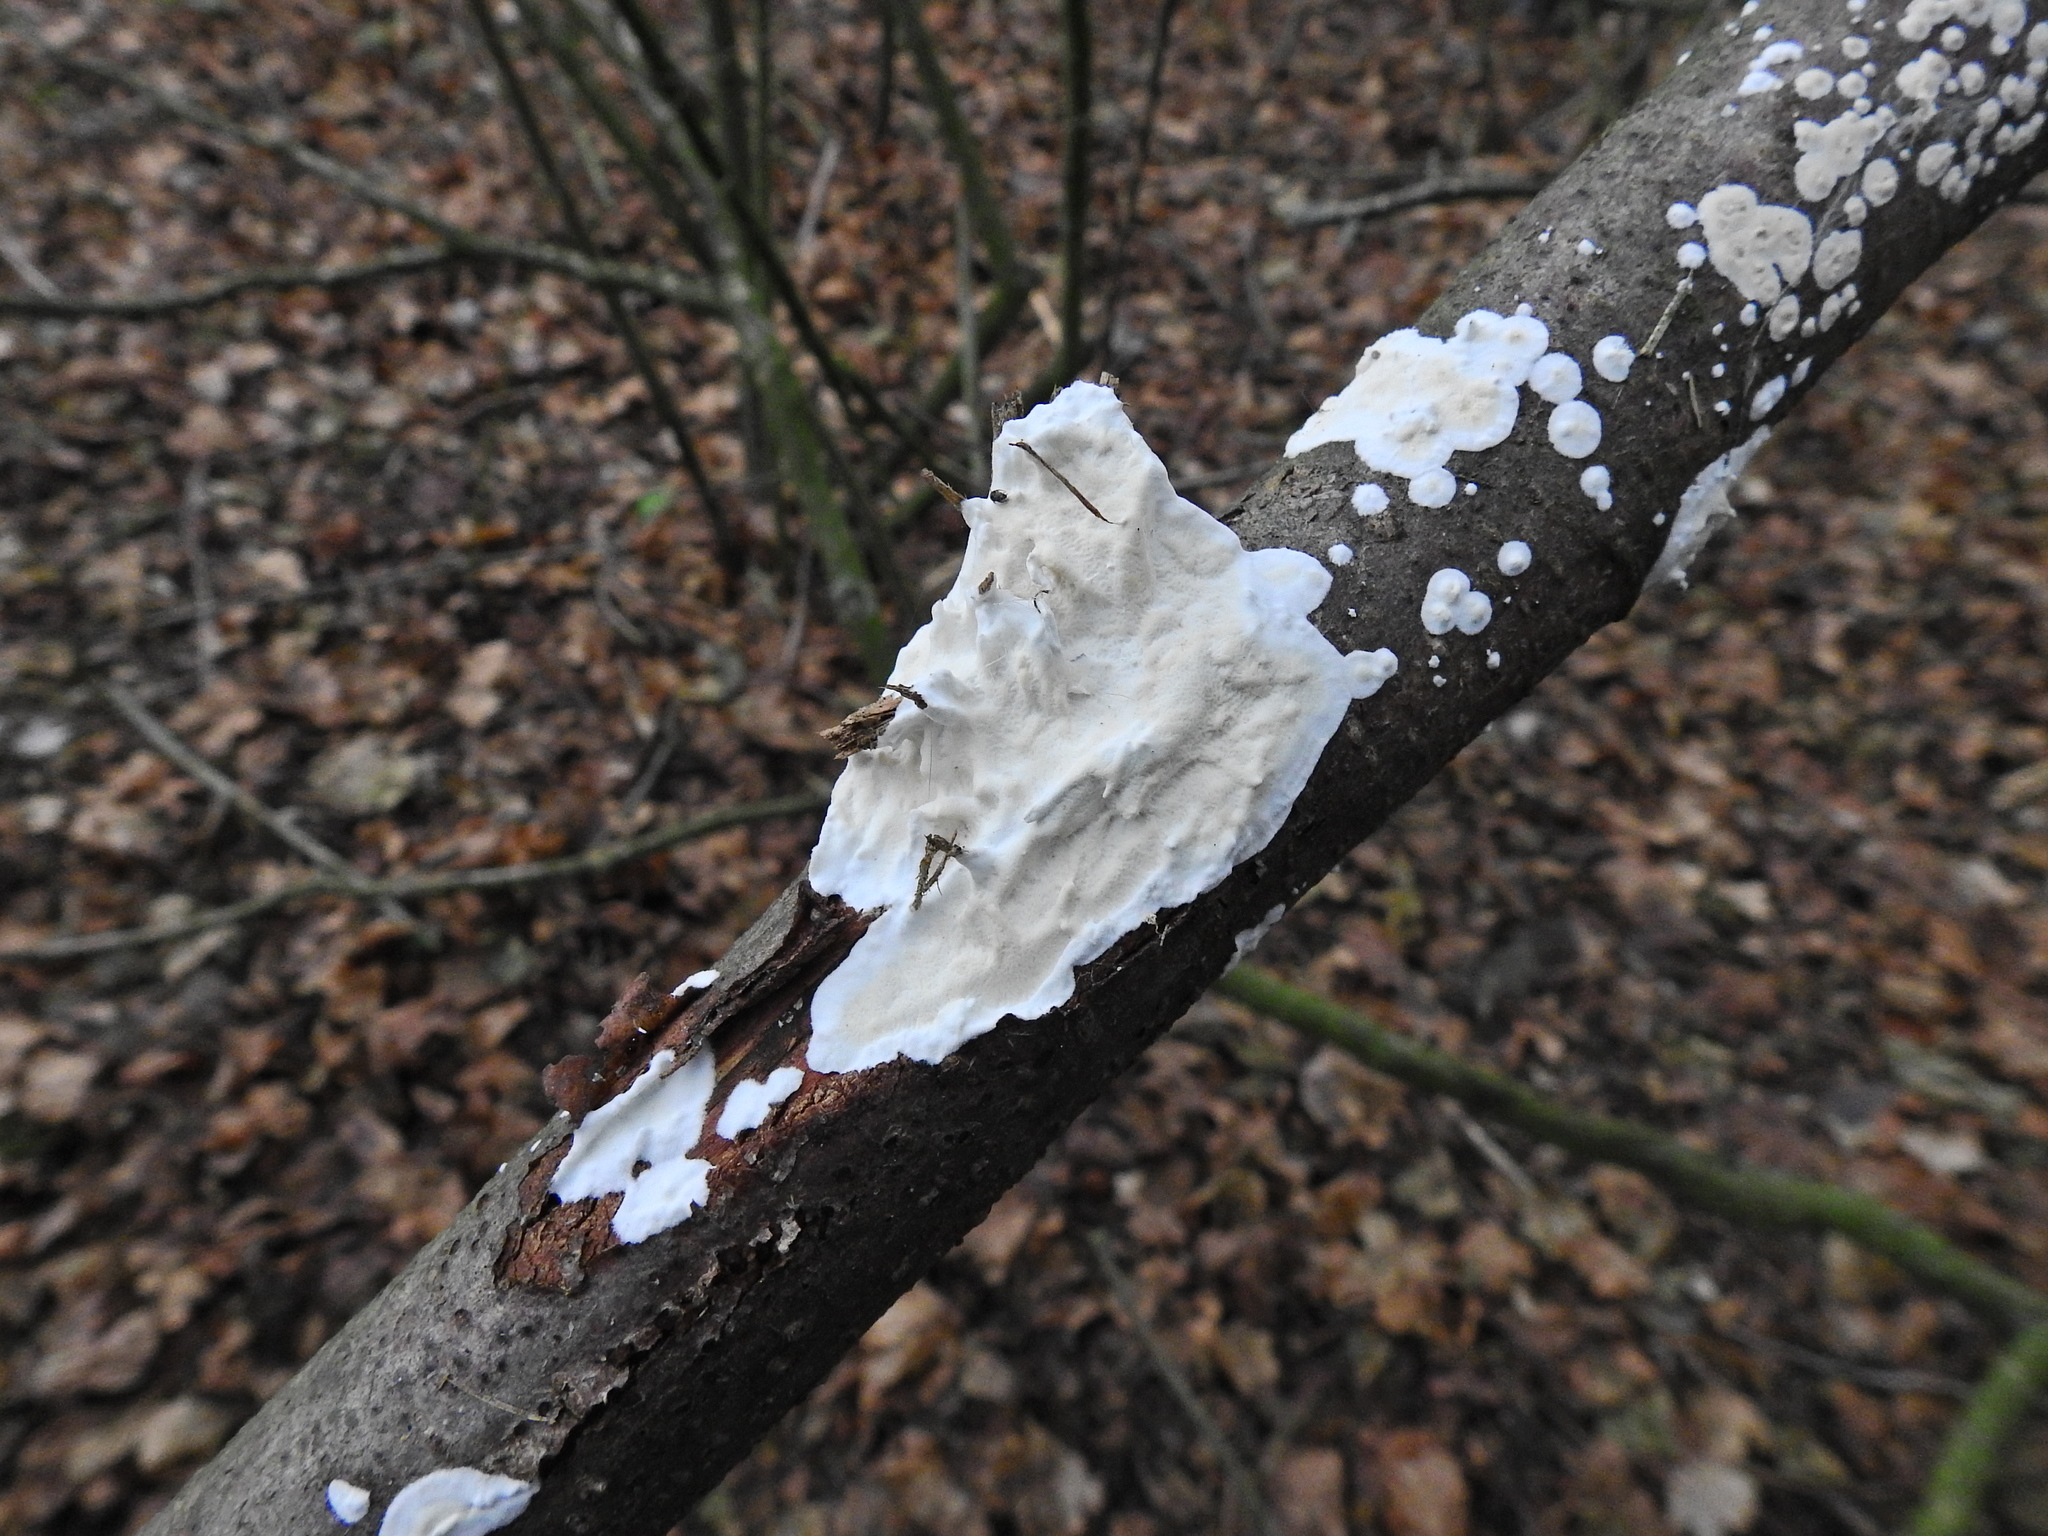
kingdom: Fungi
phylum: Basidiomycota
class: Agaricomycetes
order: Polyporales
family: Irpicaceae
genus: Byssomerulius
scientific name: Byssomerulius corium
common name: Netted crust
